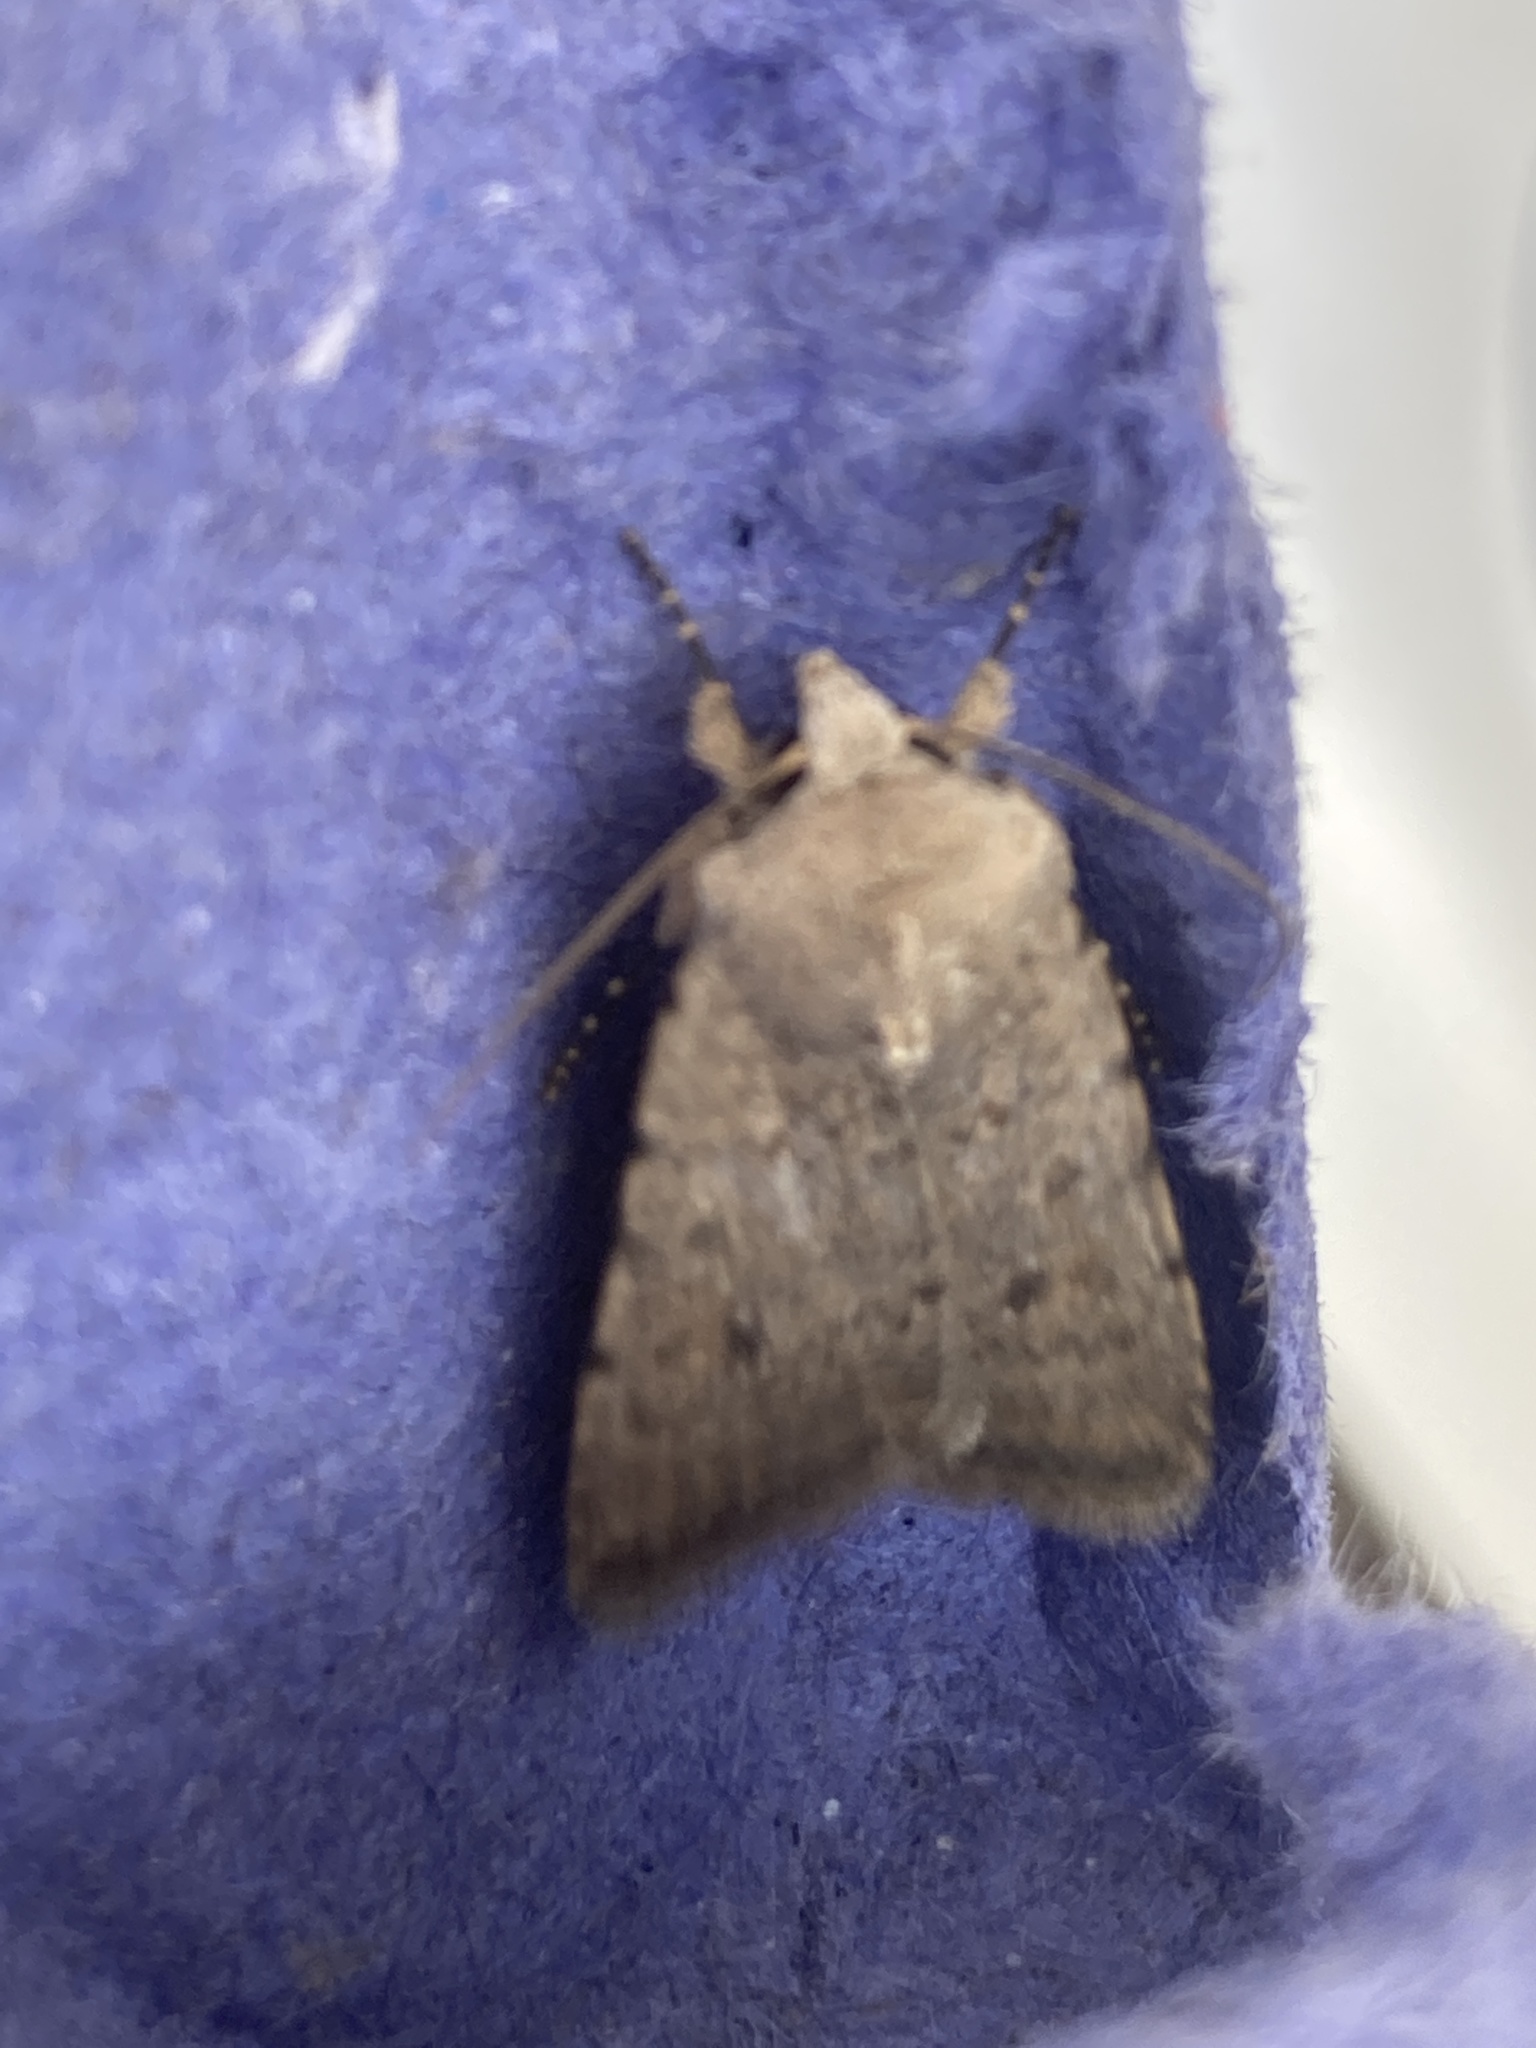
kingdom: Animalia
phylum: Arthropoda
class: Insecta
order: Lepidoptera
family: Noctuidae
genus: Caradrina
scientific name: Caradrina clavipalpis
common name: Pale mottled willow
